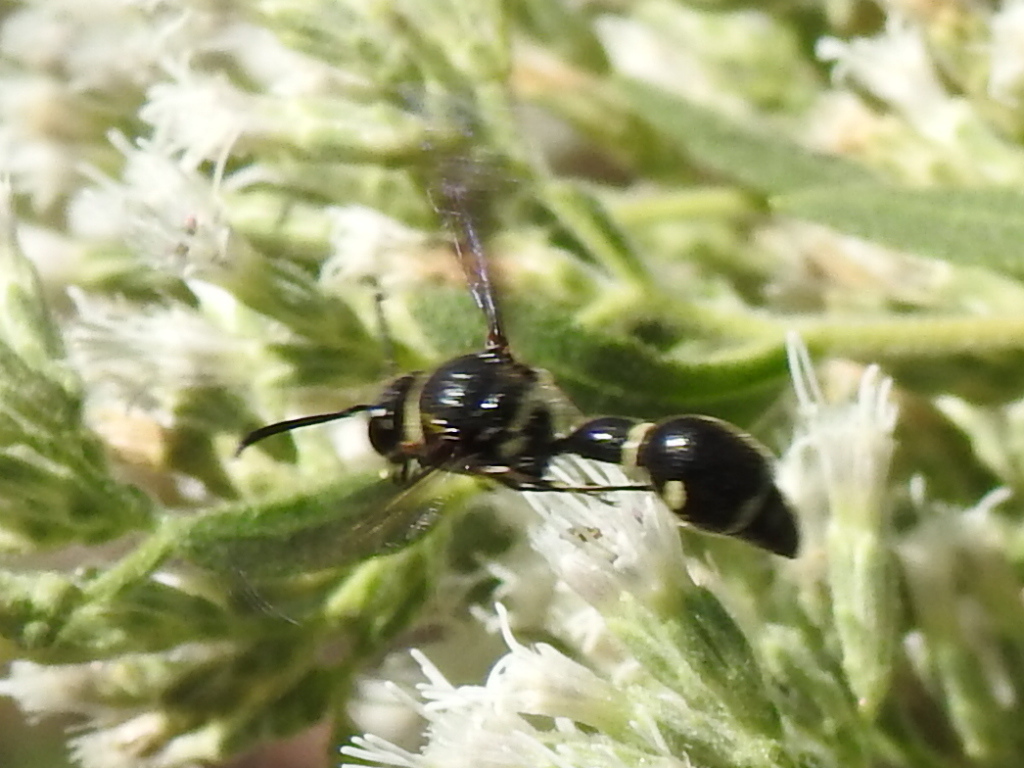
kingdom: Animalia
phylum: Arthropoda
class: Insecta
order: Hymenoptera
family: Vespidae
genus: Eumenes
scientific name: Eumenes fraternus
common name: Fraternal potter wasp
